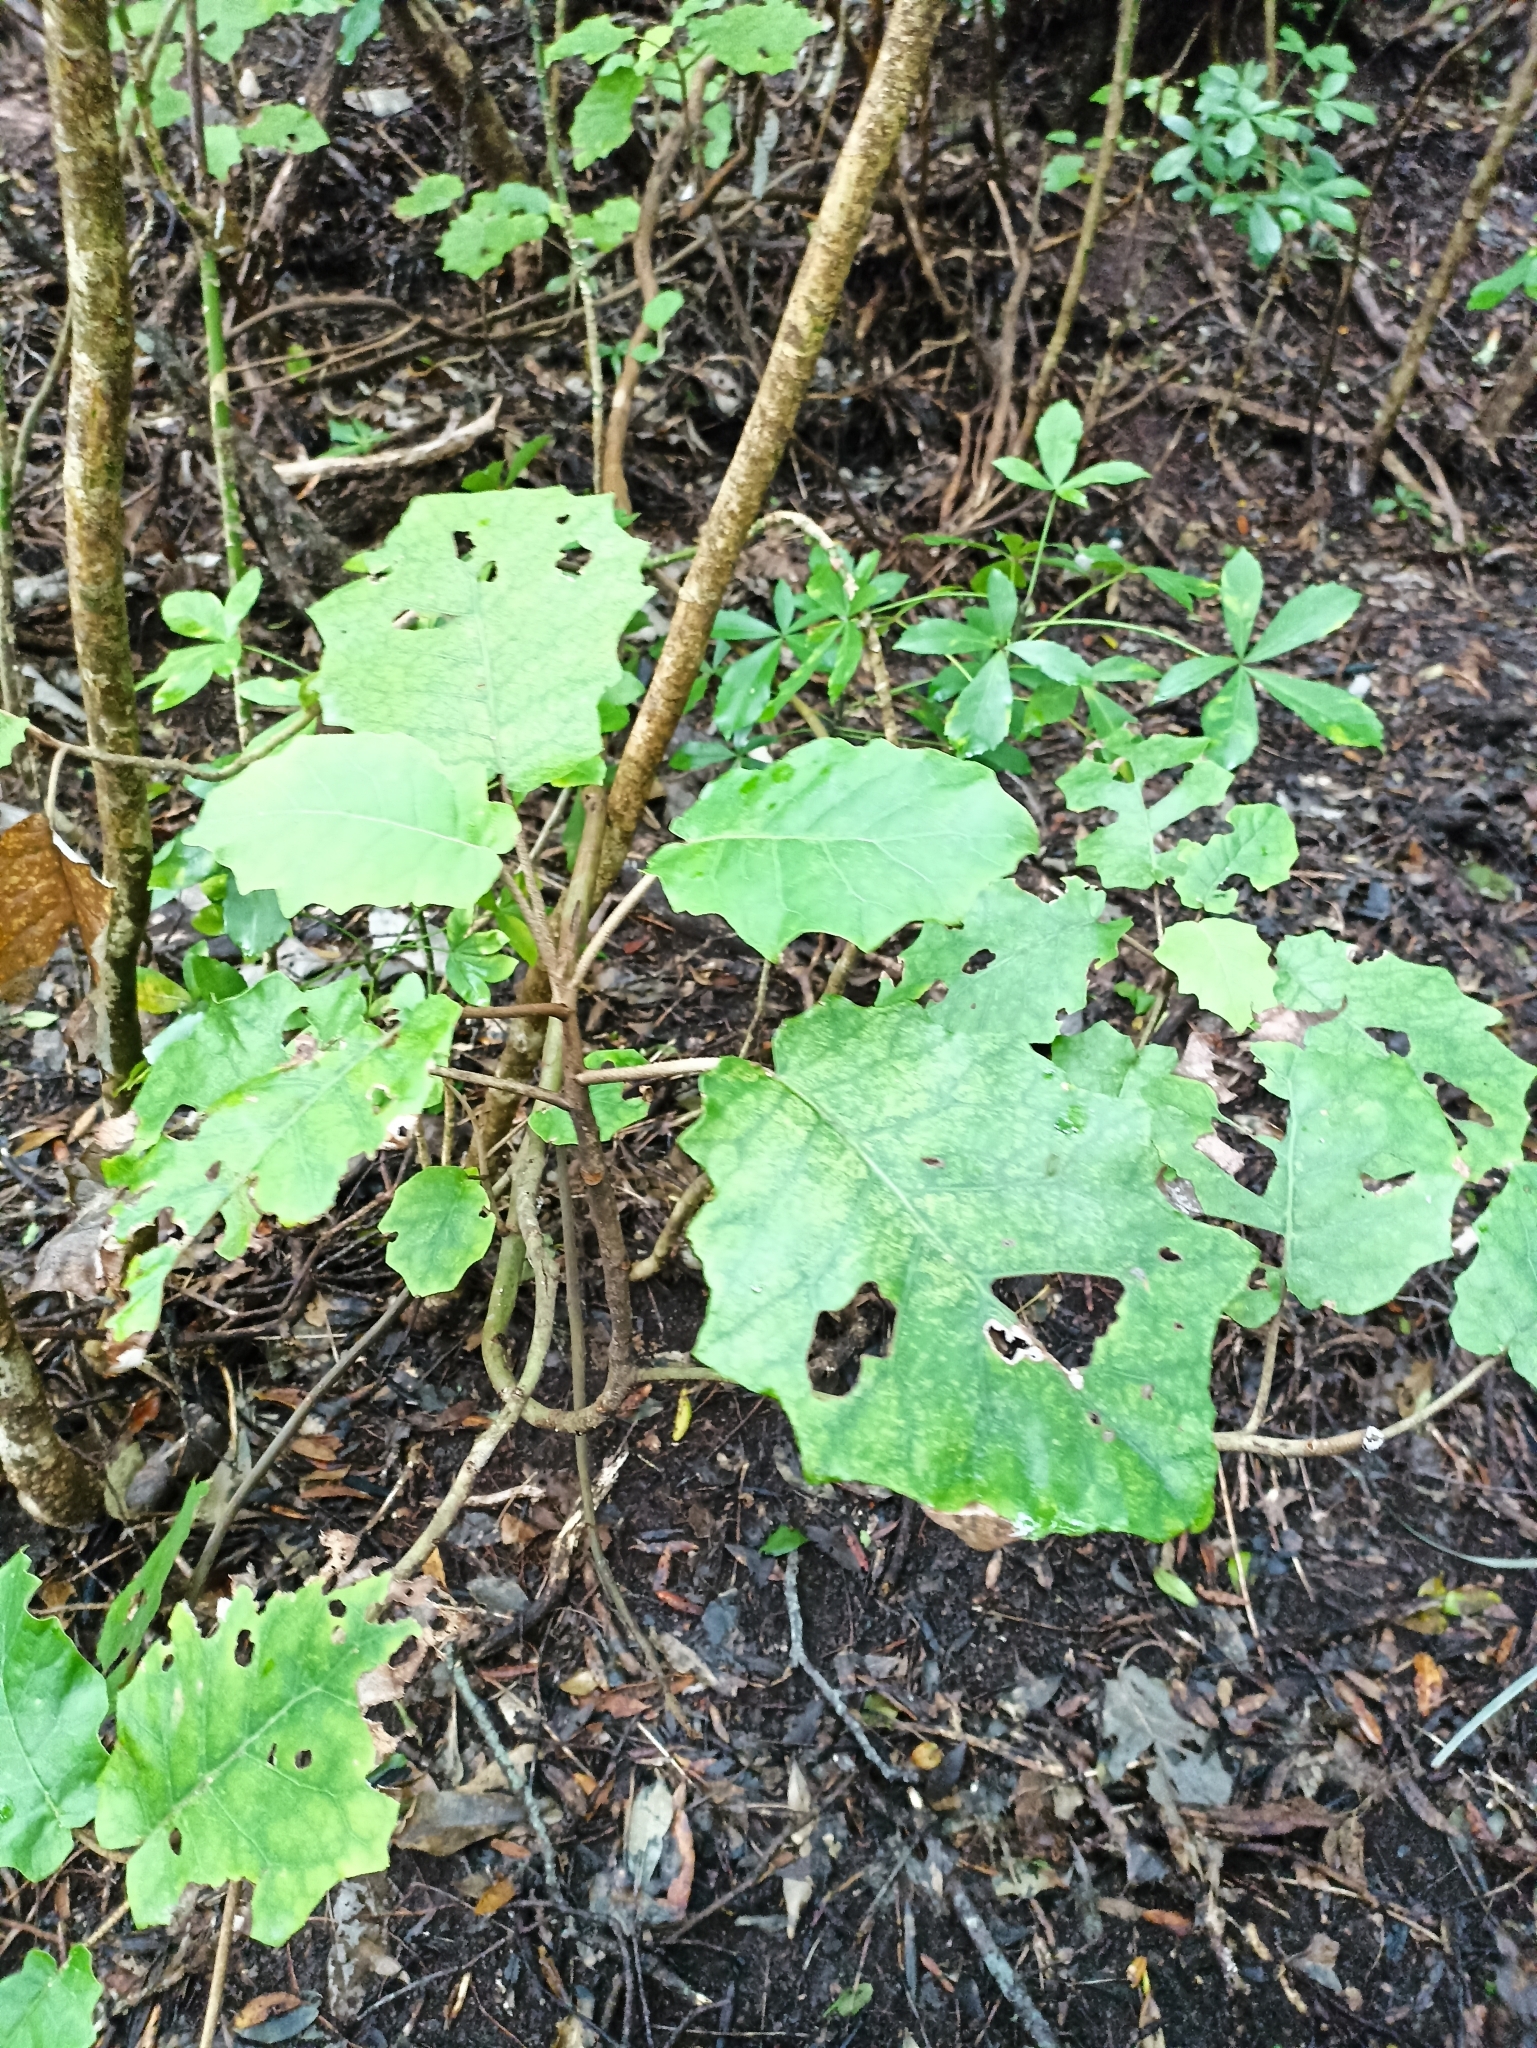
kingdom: Plantae
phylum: Tracheophyta
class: Magnoliopsida
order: Asterales
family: Asteraceae
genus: Brachyglottis
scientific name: Brachyglottis repanda
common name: Hedge ragwort
